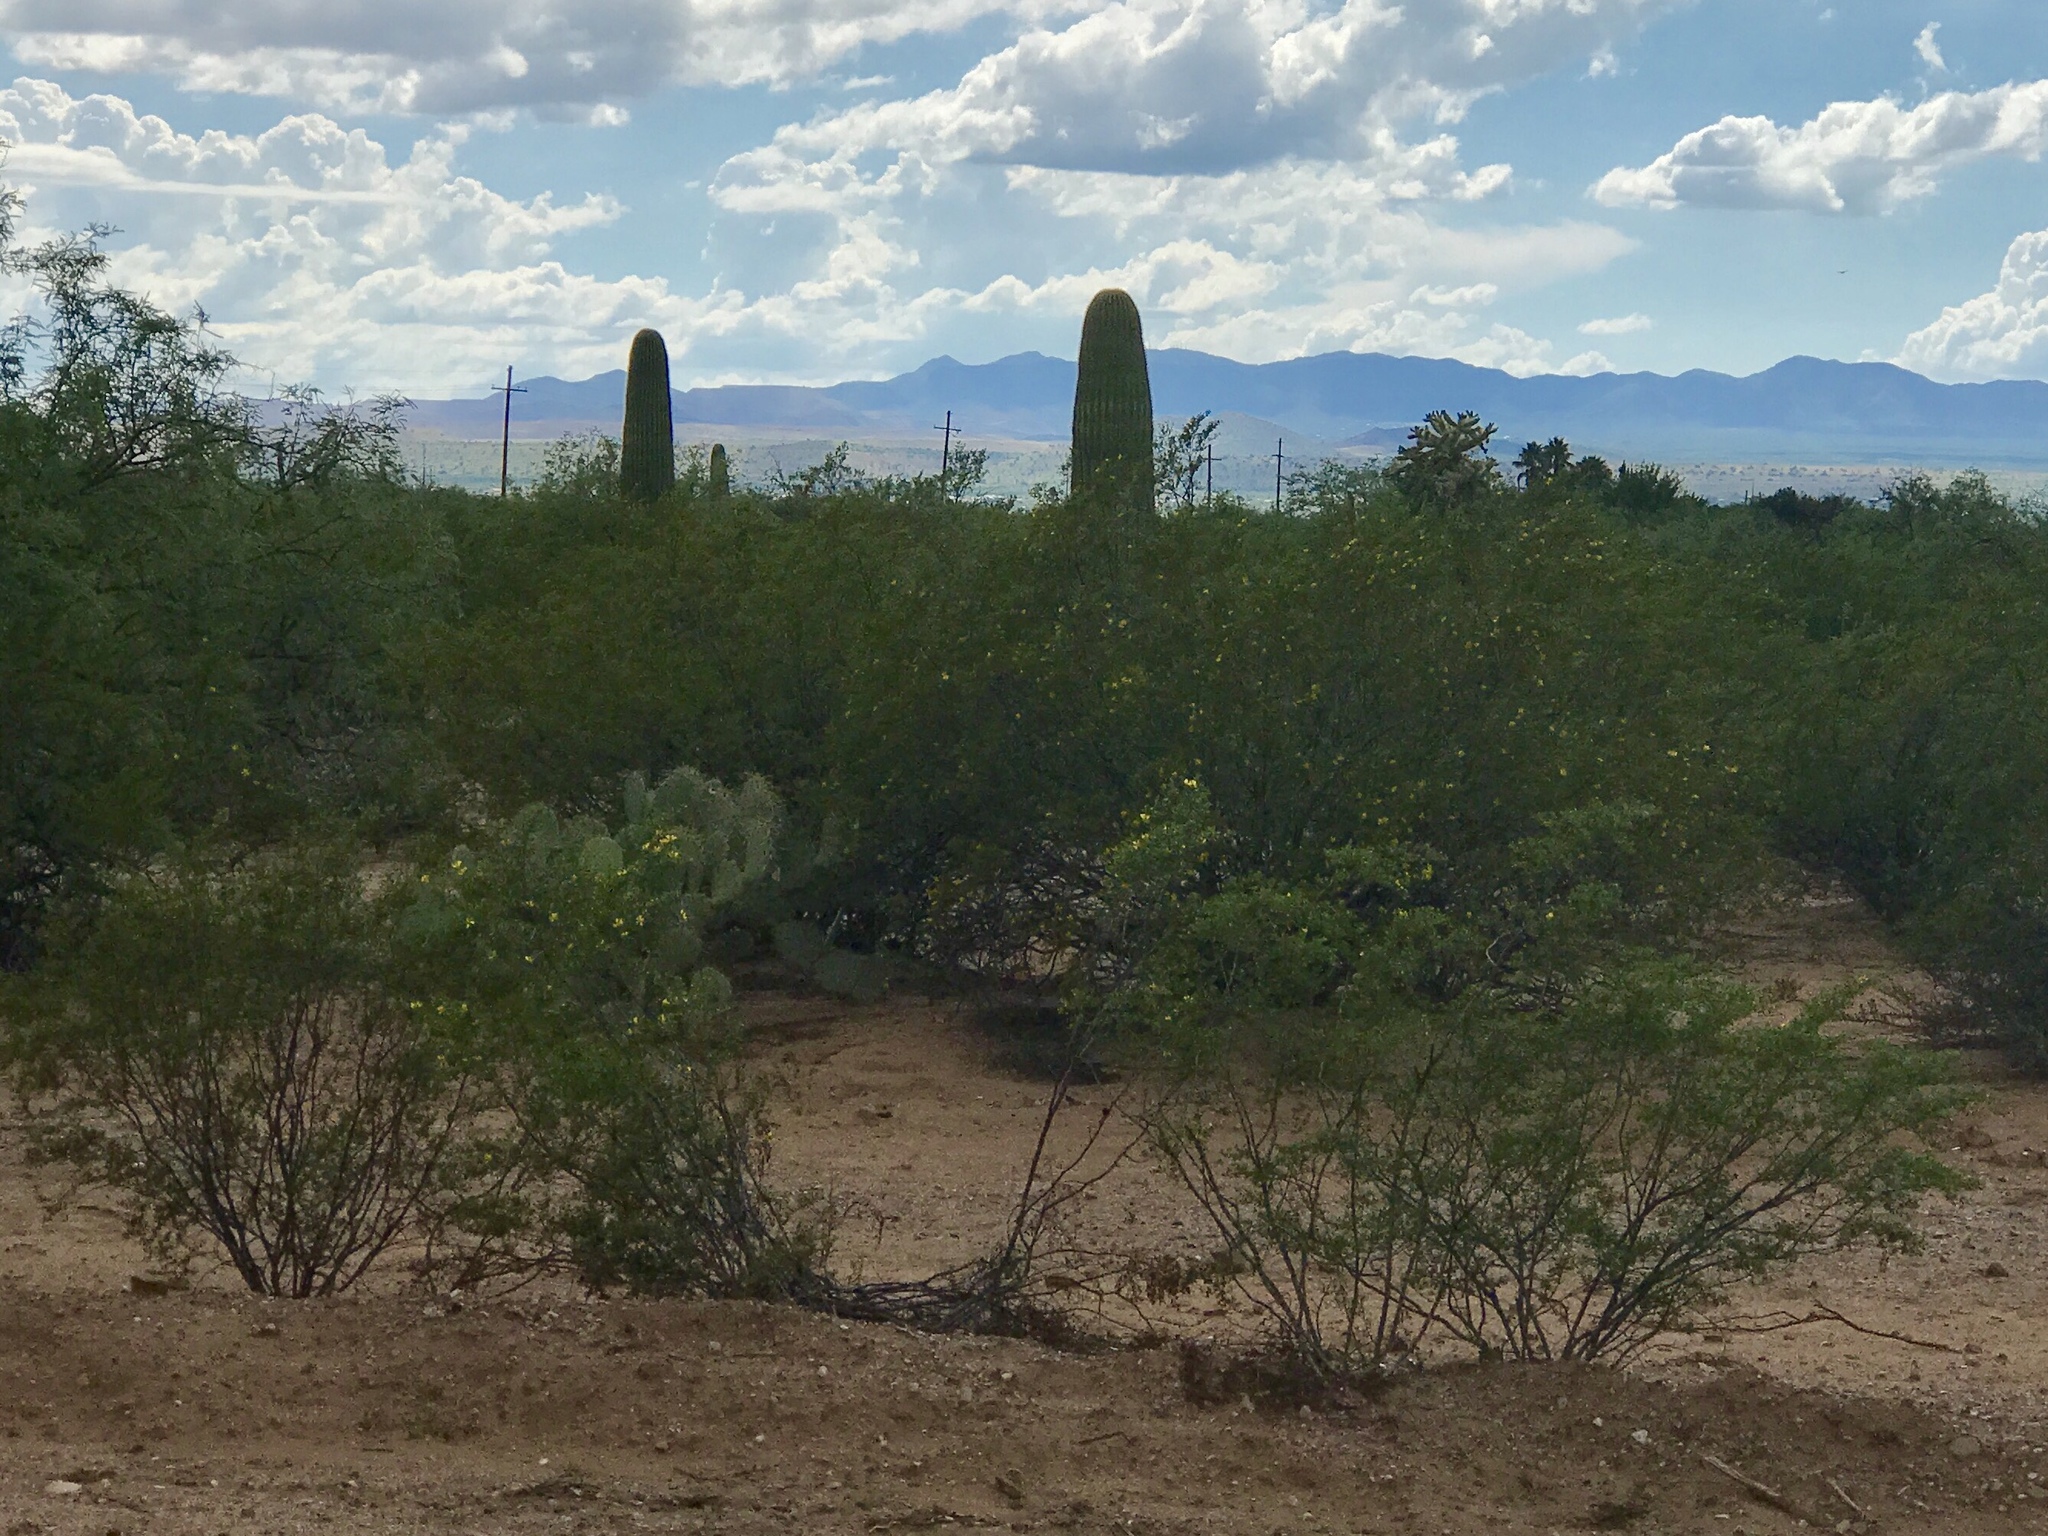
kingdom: Plantae
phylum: Tracheophyta
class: Magnoliopsida
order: Zygophyllales
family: Zygophyllaceae
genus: Larrea
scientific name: Larrea tridentata
